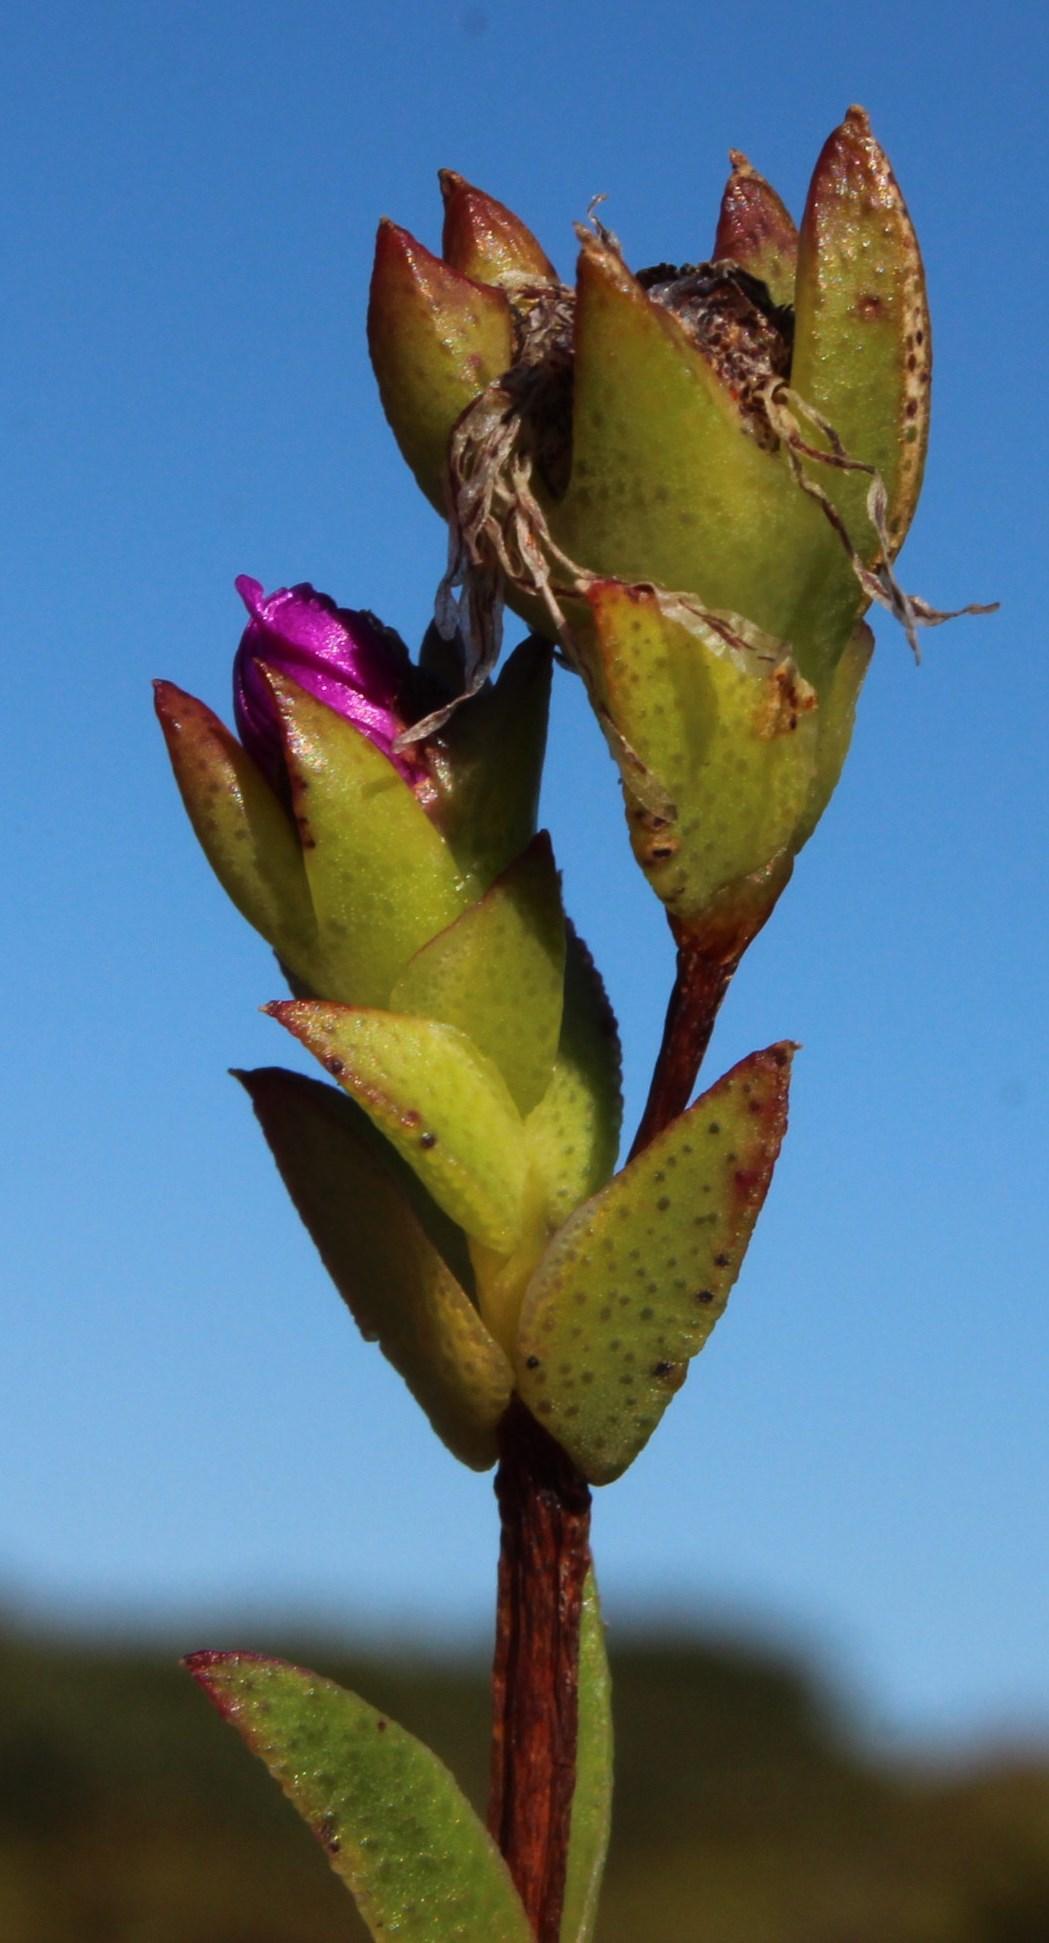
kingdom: Plantae
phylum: Tracheophyta
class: Magnoliopsida
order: Caryophyllales
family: Aizoaceae
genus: Erepsia
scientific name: Erepsia bracteata
